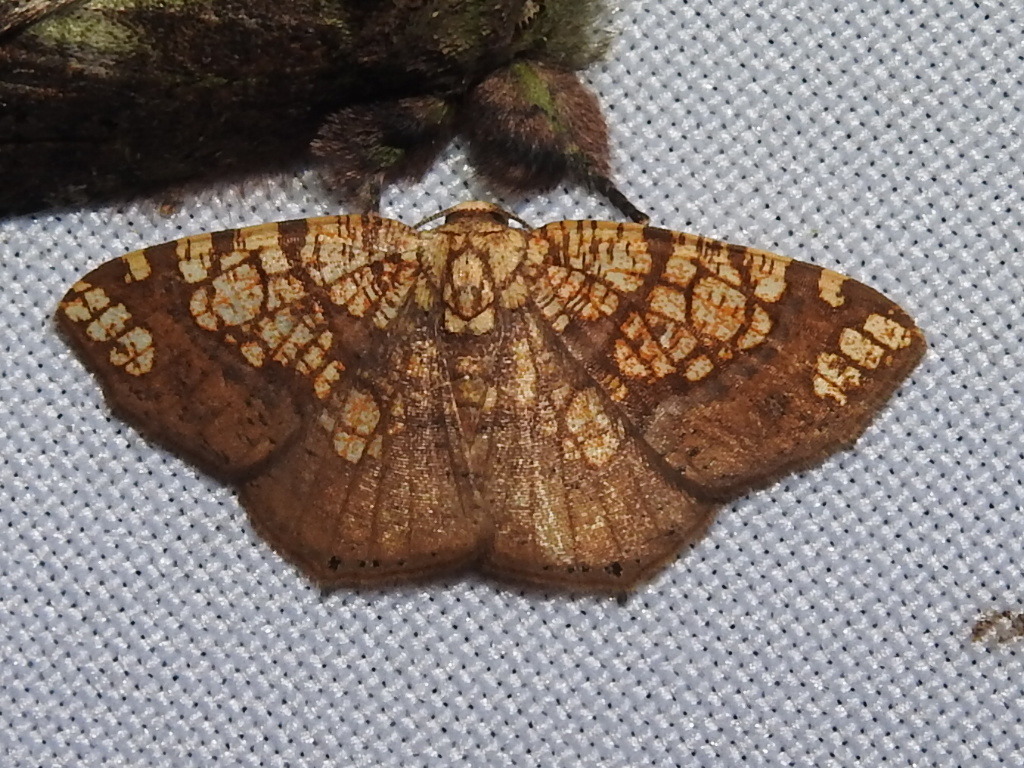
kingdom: Animalia
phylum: Arthropoda
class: Insecta
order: Lepidoptera
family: Geometridae
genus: Nematocampa
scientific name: Nematocampa completa
